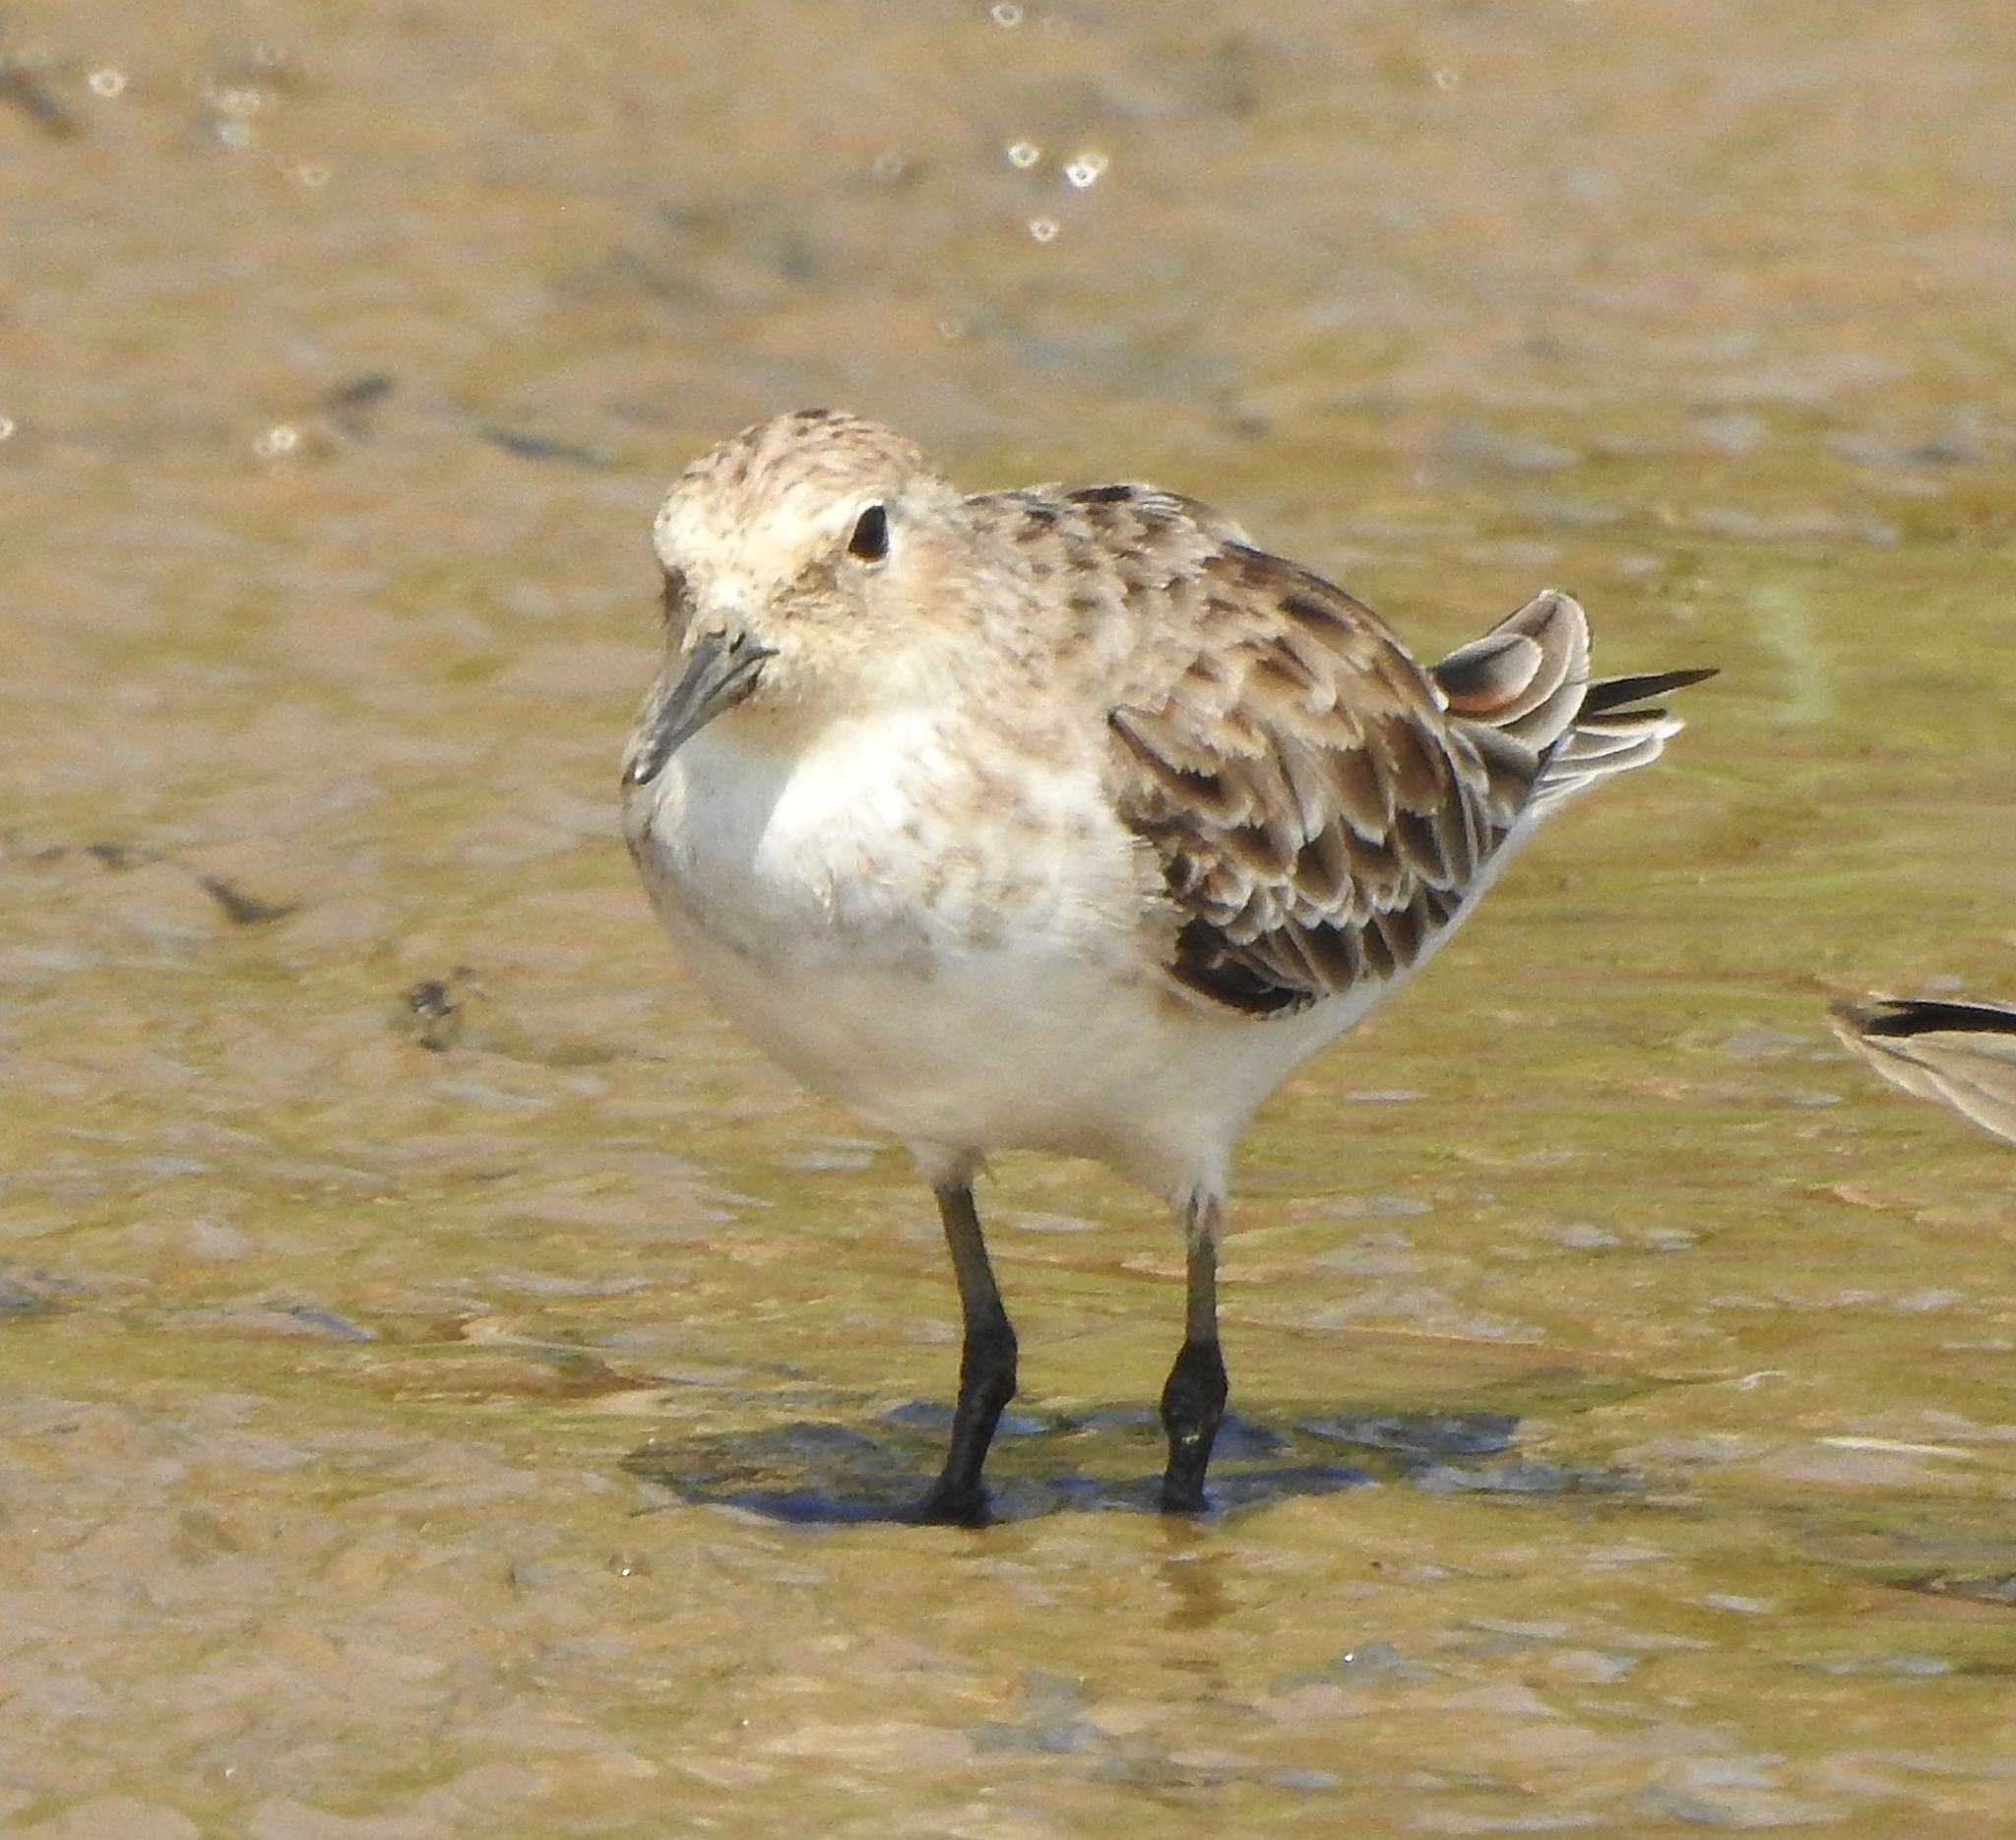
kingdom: Animalia
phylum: Chordata
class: Aves
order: Charadriiformes
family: Scolopacidae
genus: Calidris
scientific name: Calidris minuta
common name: Little stint
